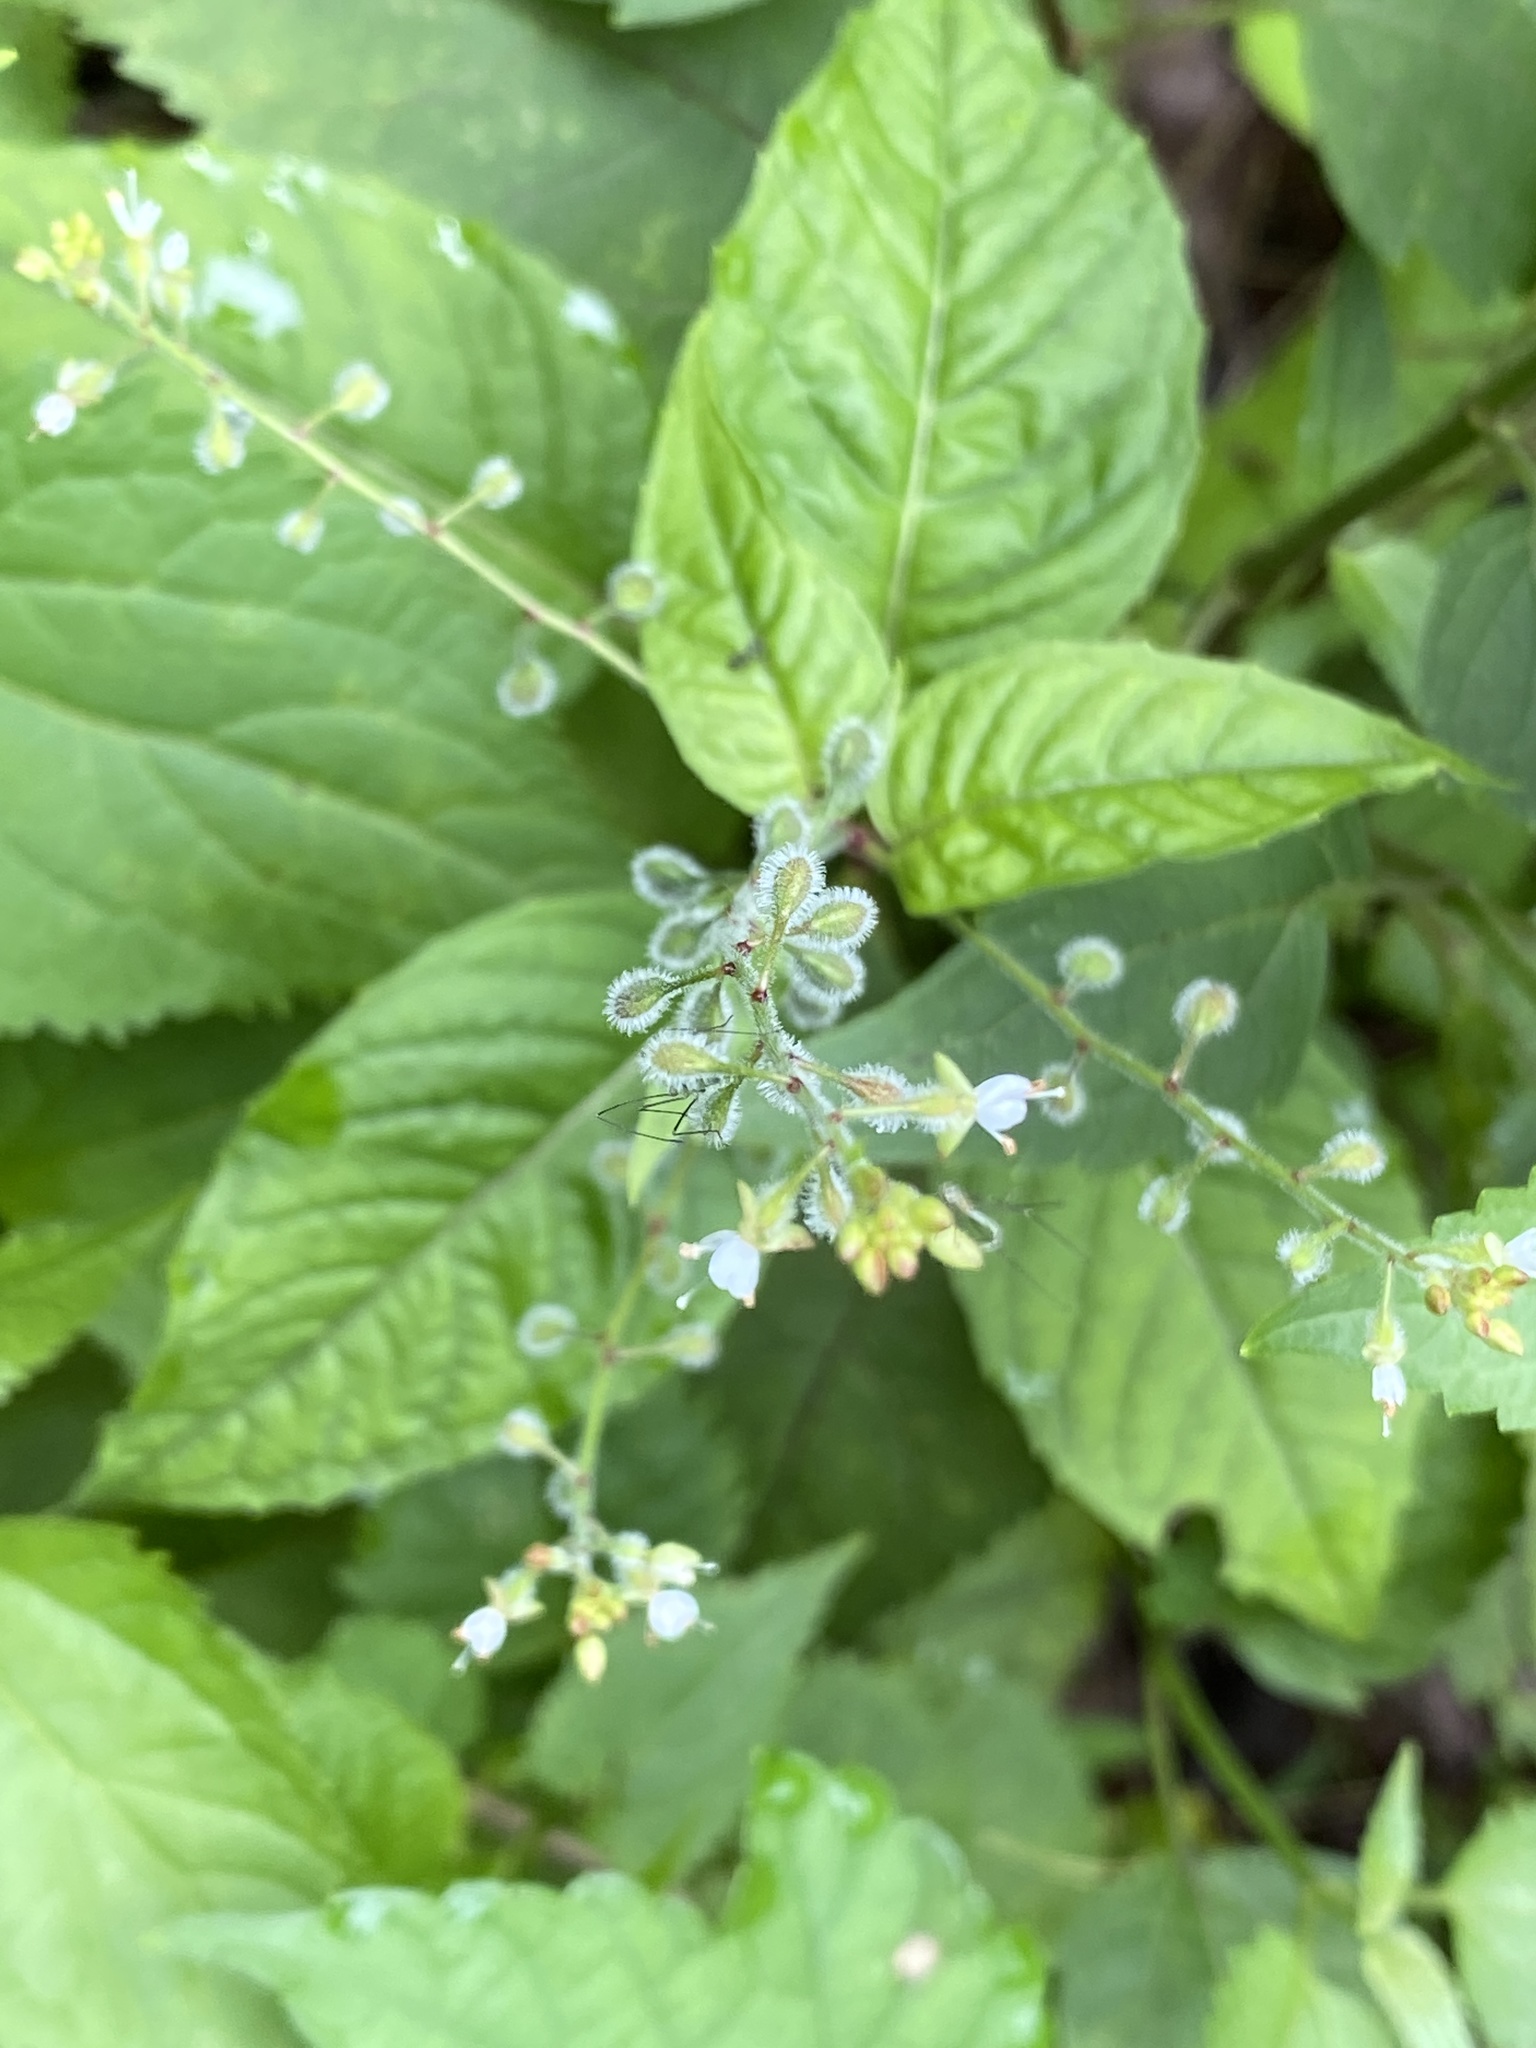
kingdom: Plantae
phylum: Tracheophyta
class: Magnoliopsida
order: Myrtales
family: Onagraceae
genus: Circaea
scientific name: Circaea canadensis
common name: Broad-leaved enchanter's nightshade
